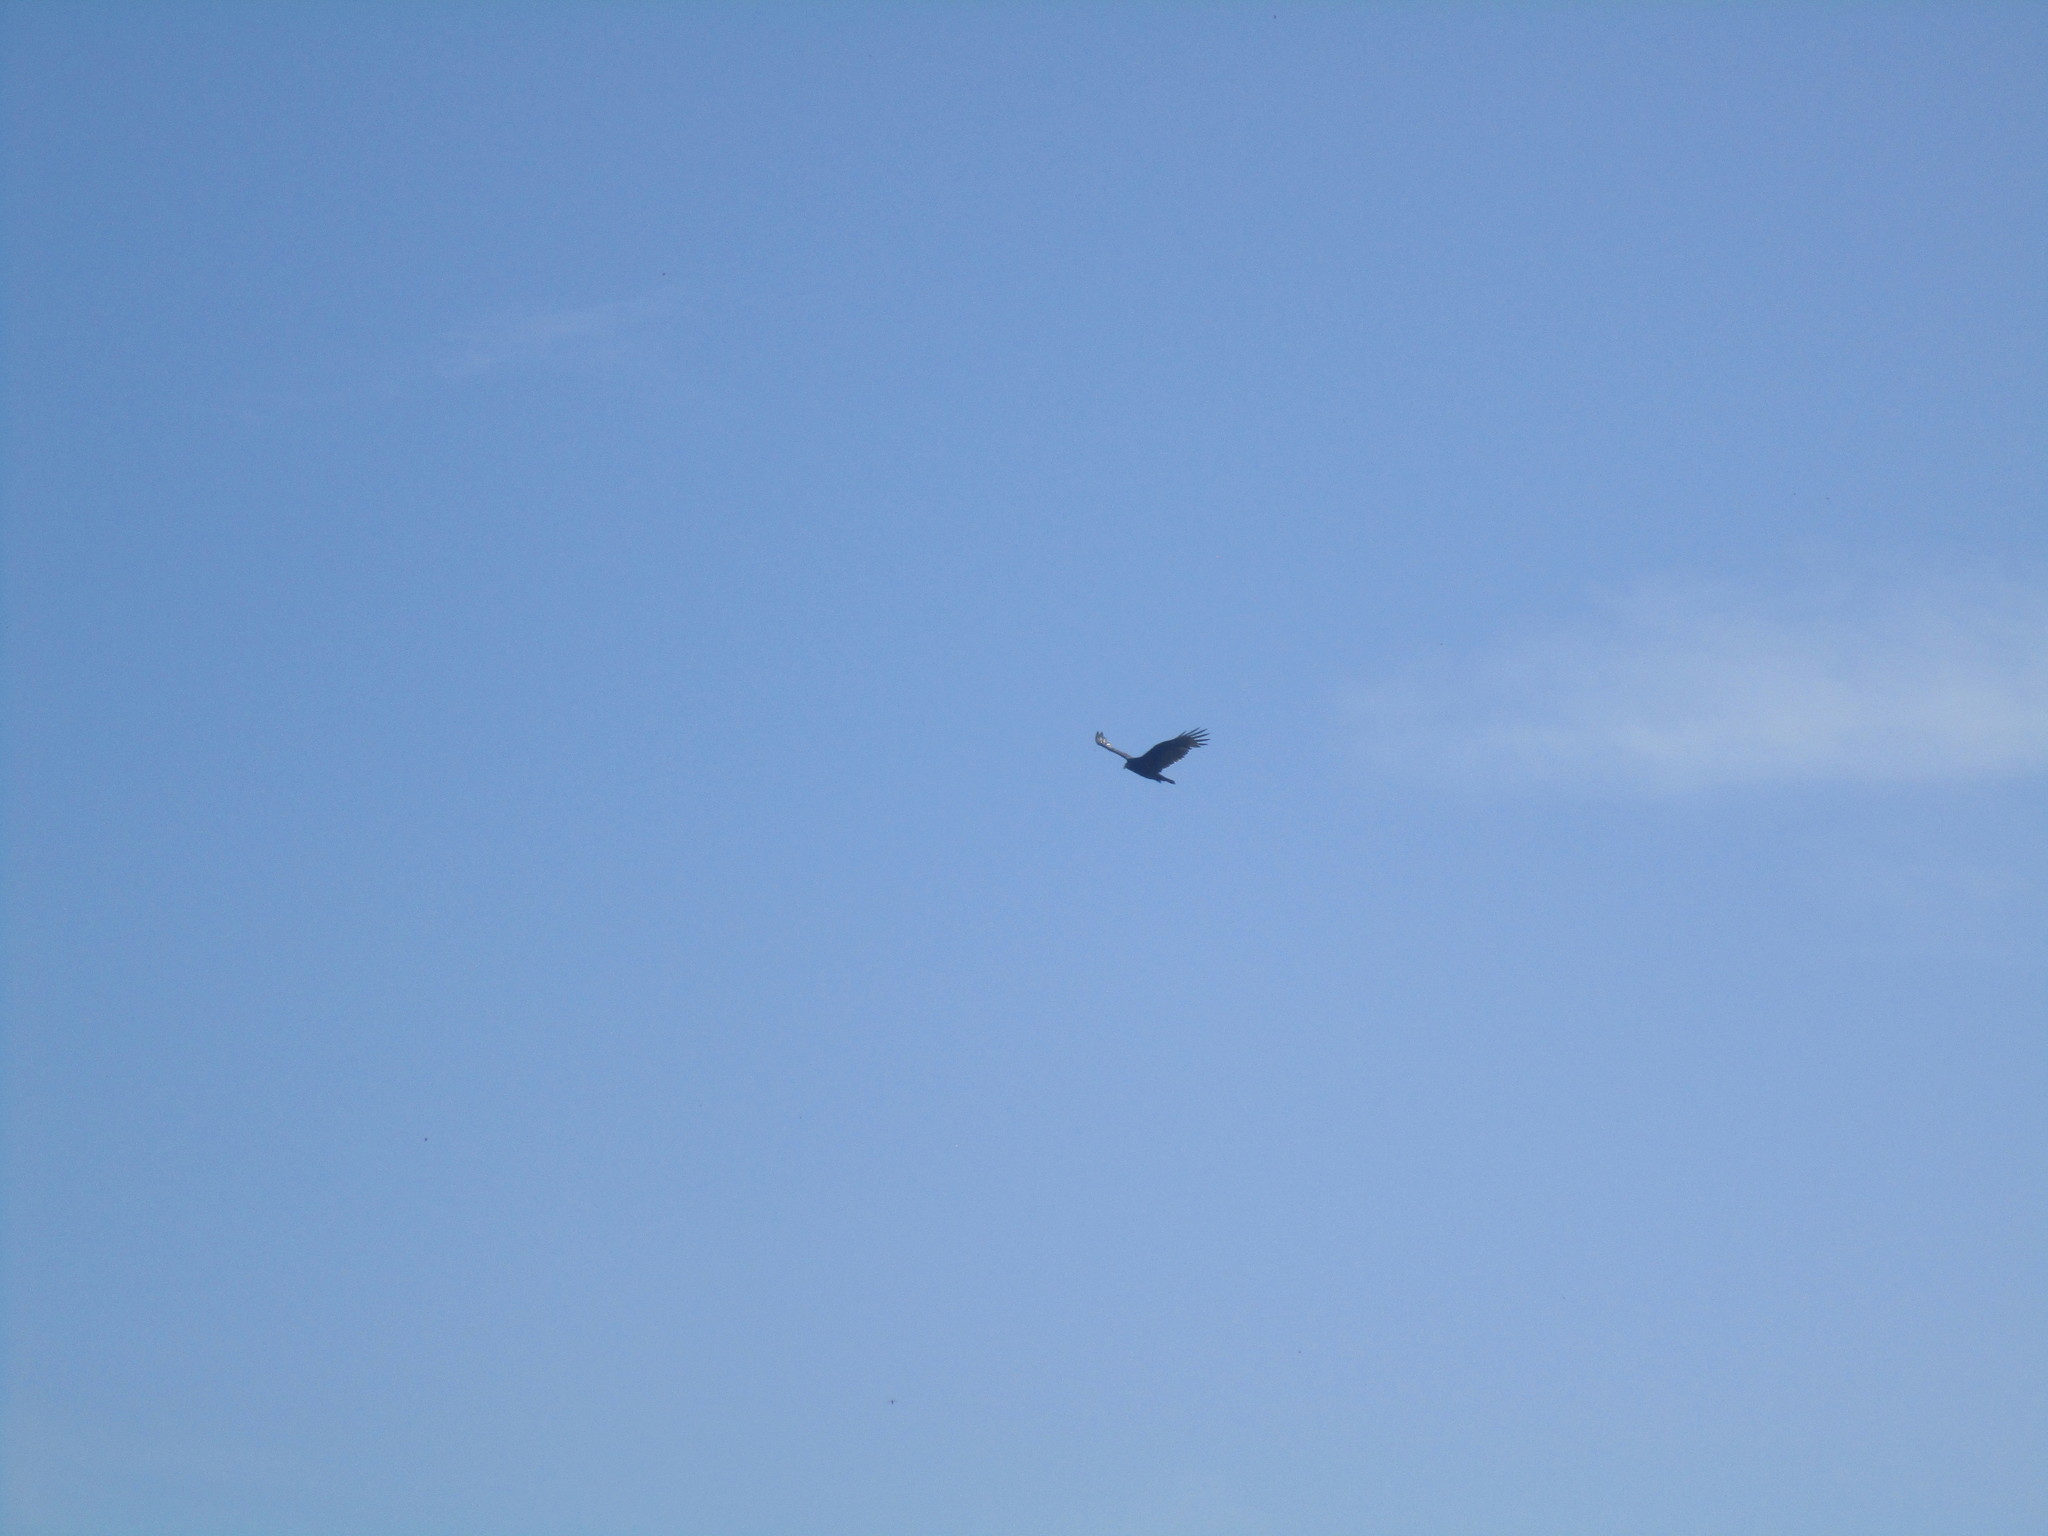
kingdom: Animalia
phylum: Chordata
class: Aves
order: Accipitriformes
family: Cathartidae
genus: Cathartes
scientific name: Cathartes aura
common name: Turkey vulture
